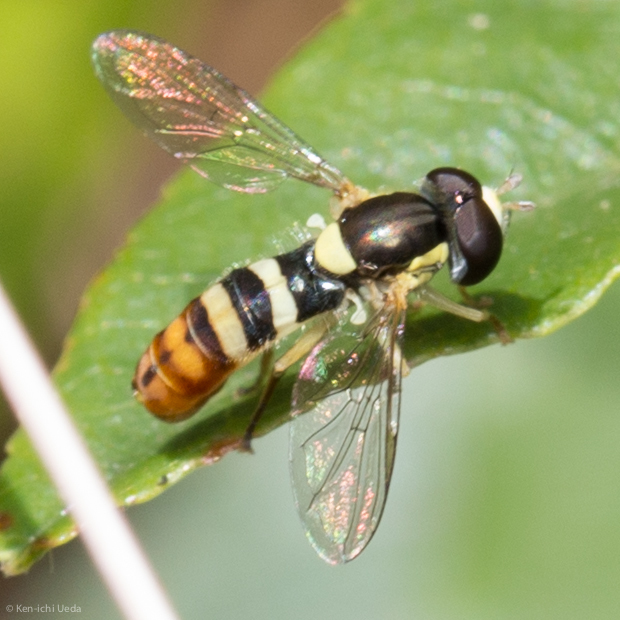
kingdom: Animalia
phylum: Arthropoda
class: Insecta
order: Diptera
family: Syrphidae
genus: Sphaerophoria
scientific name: Sphaerophoria sulphuripes
